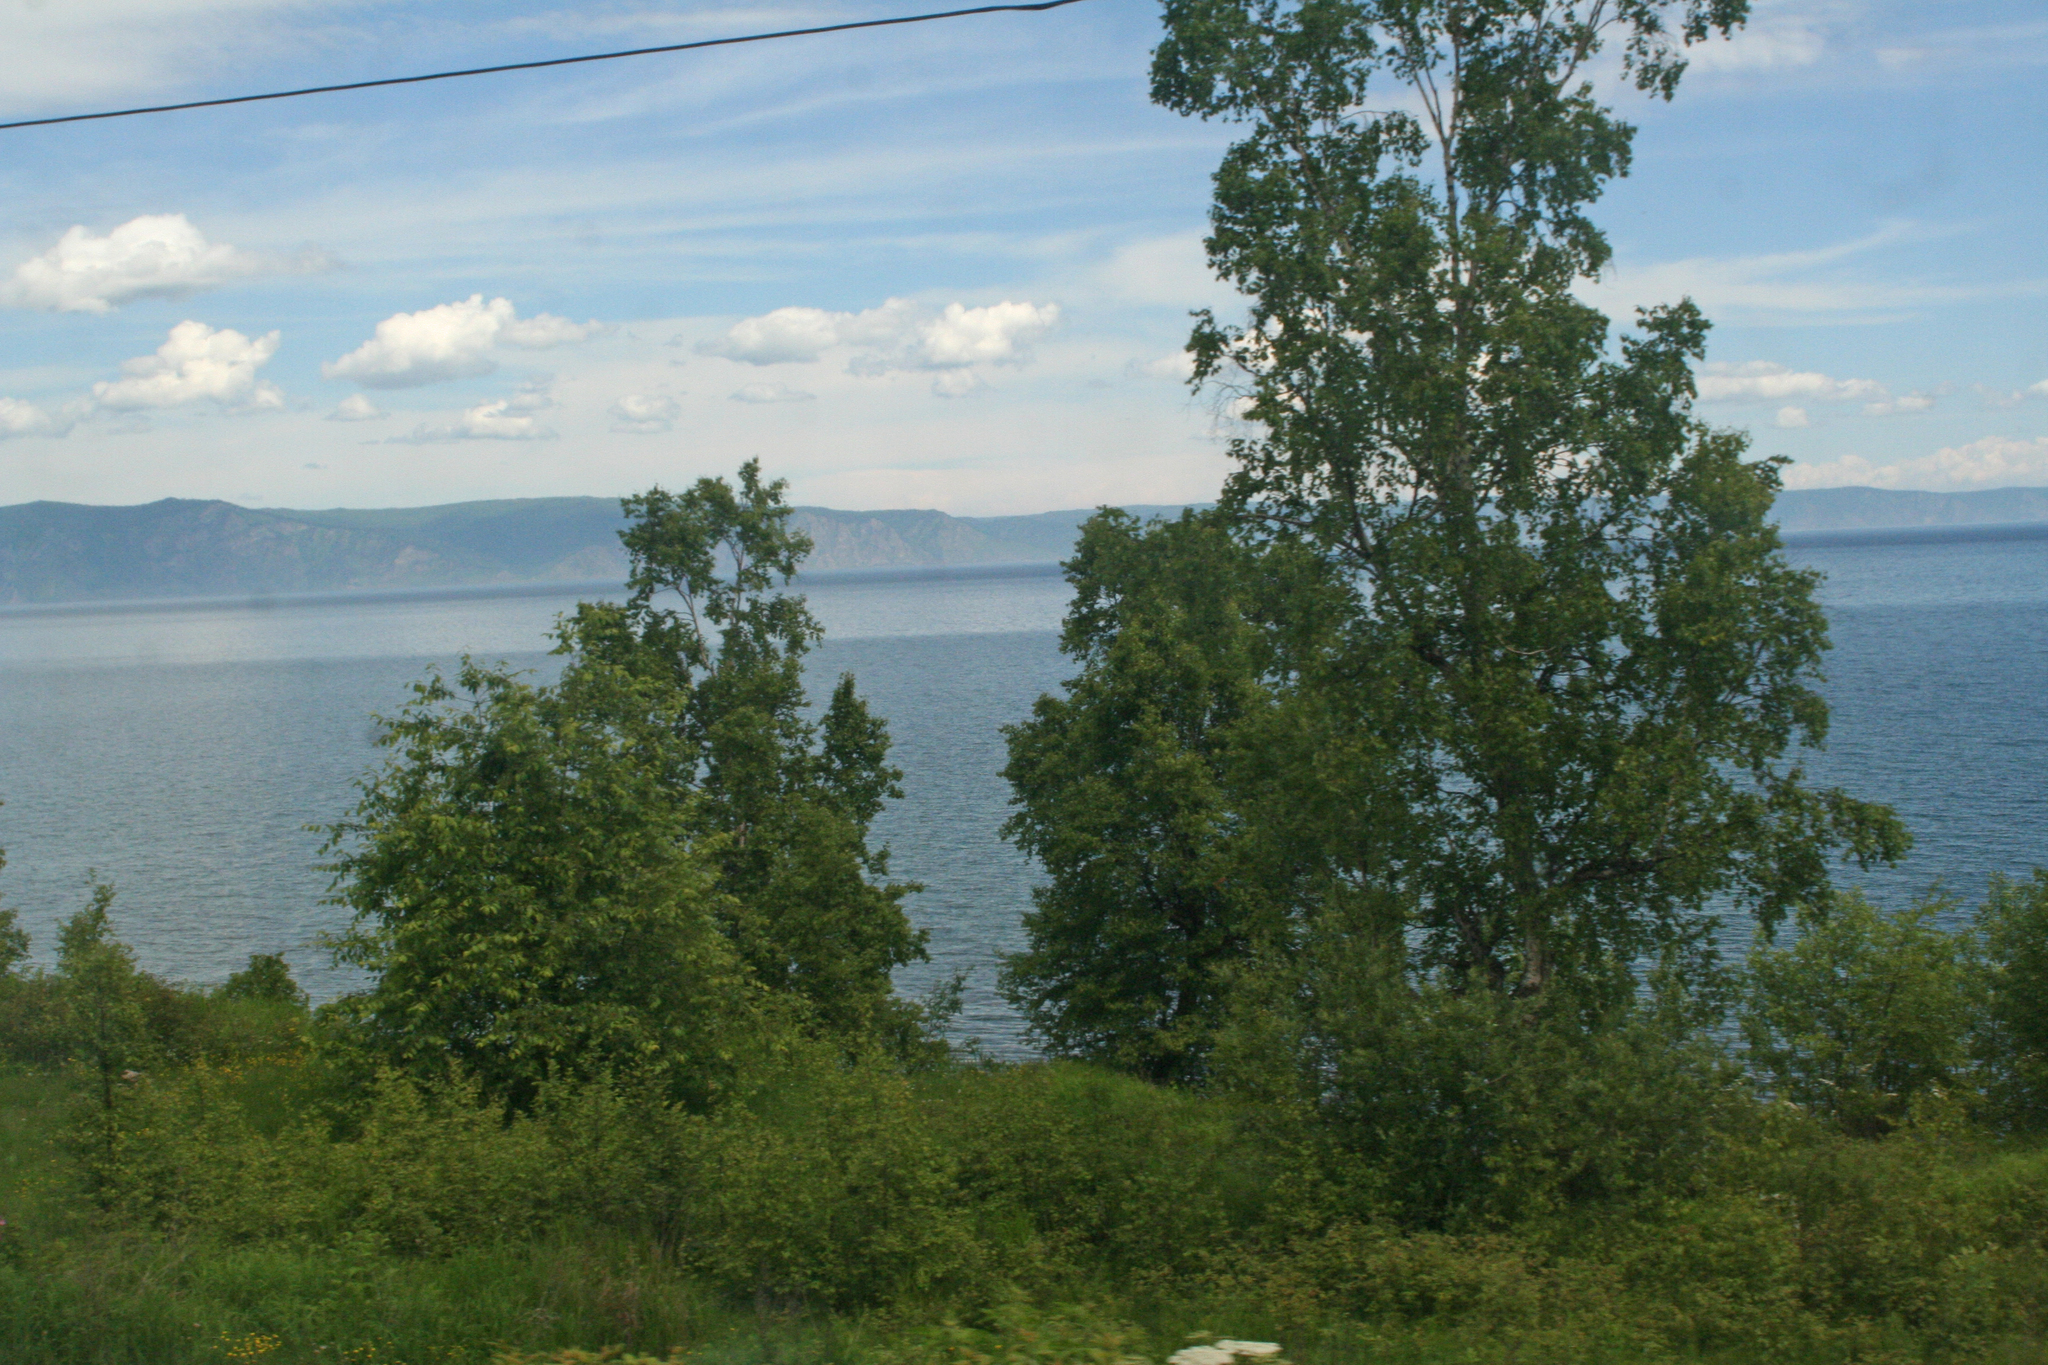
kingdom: Plantae
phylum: Tracheophyta
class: Magnoliopsida
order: Fagales
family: Betulaceae
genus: Betula
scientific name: Betula pendula
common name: Silver birch
